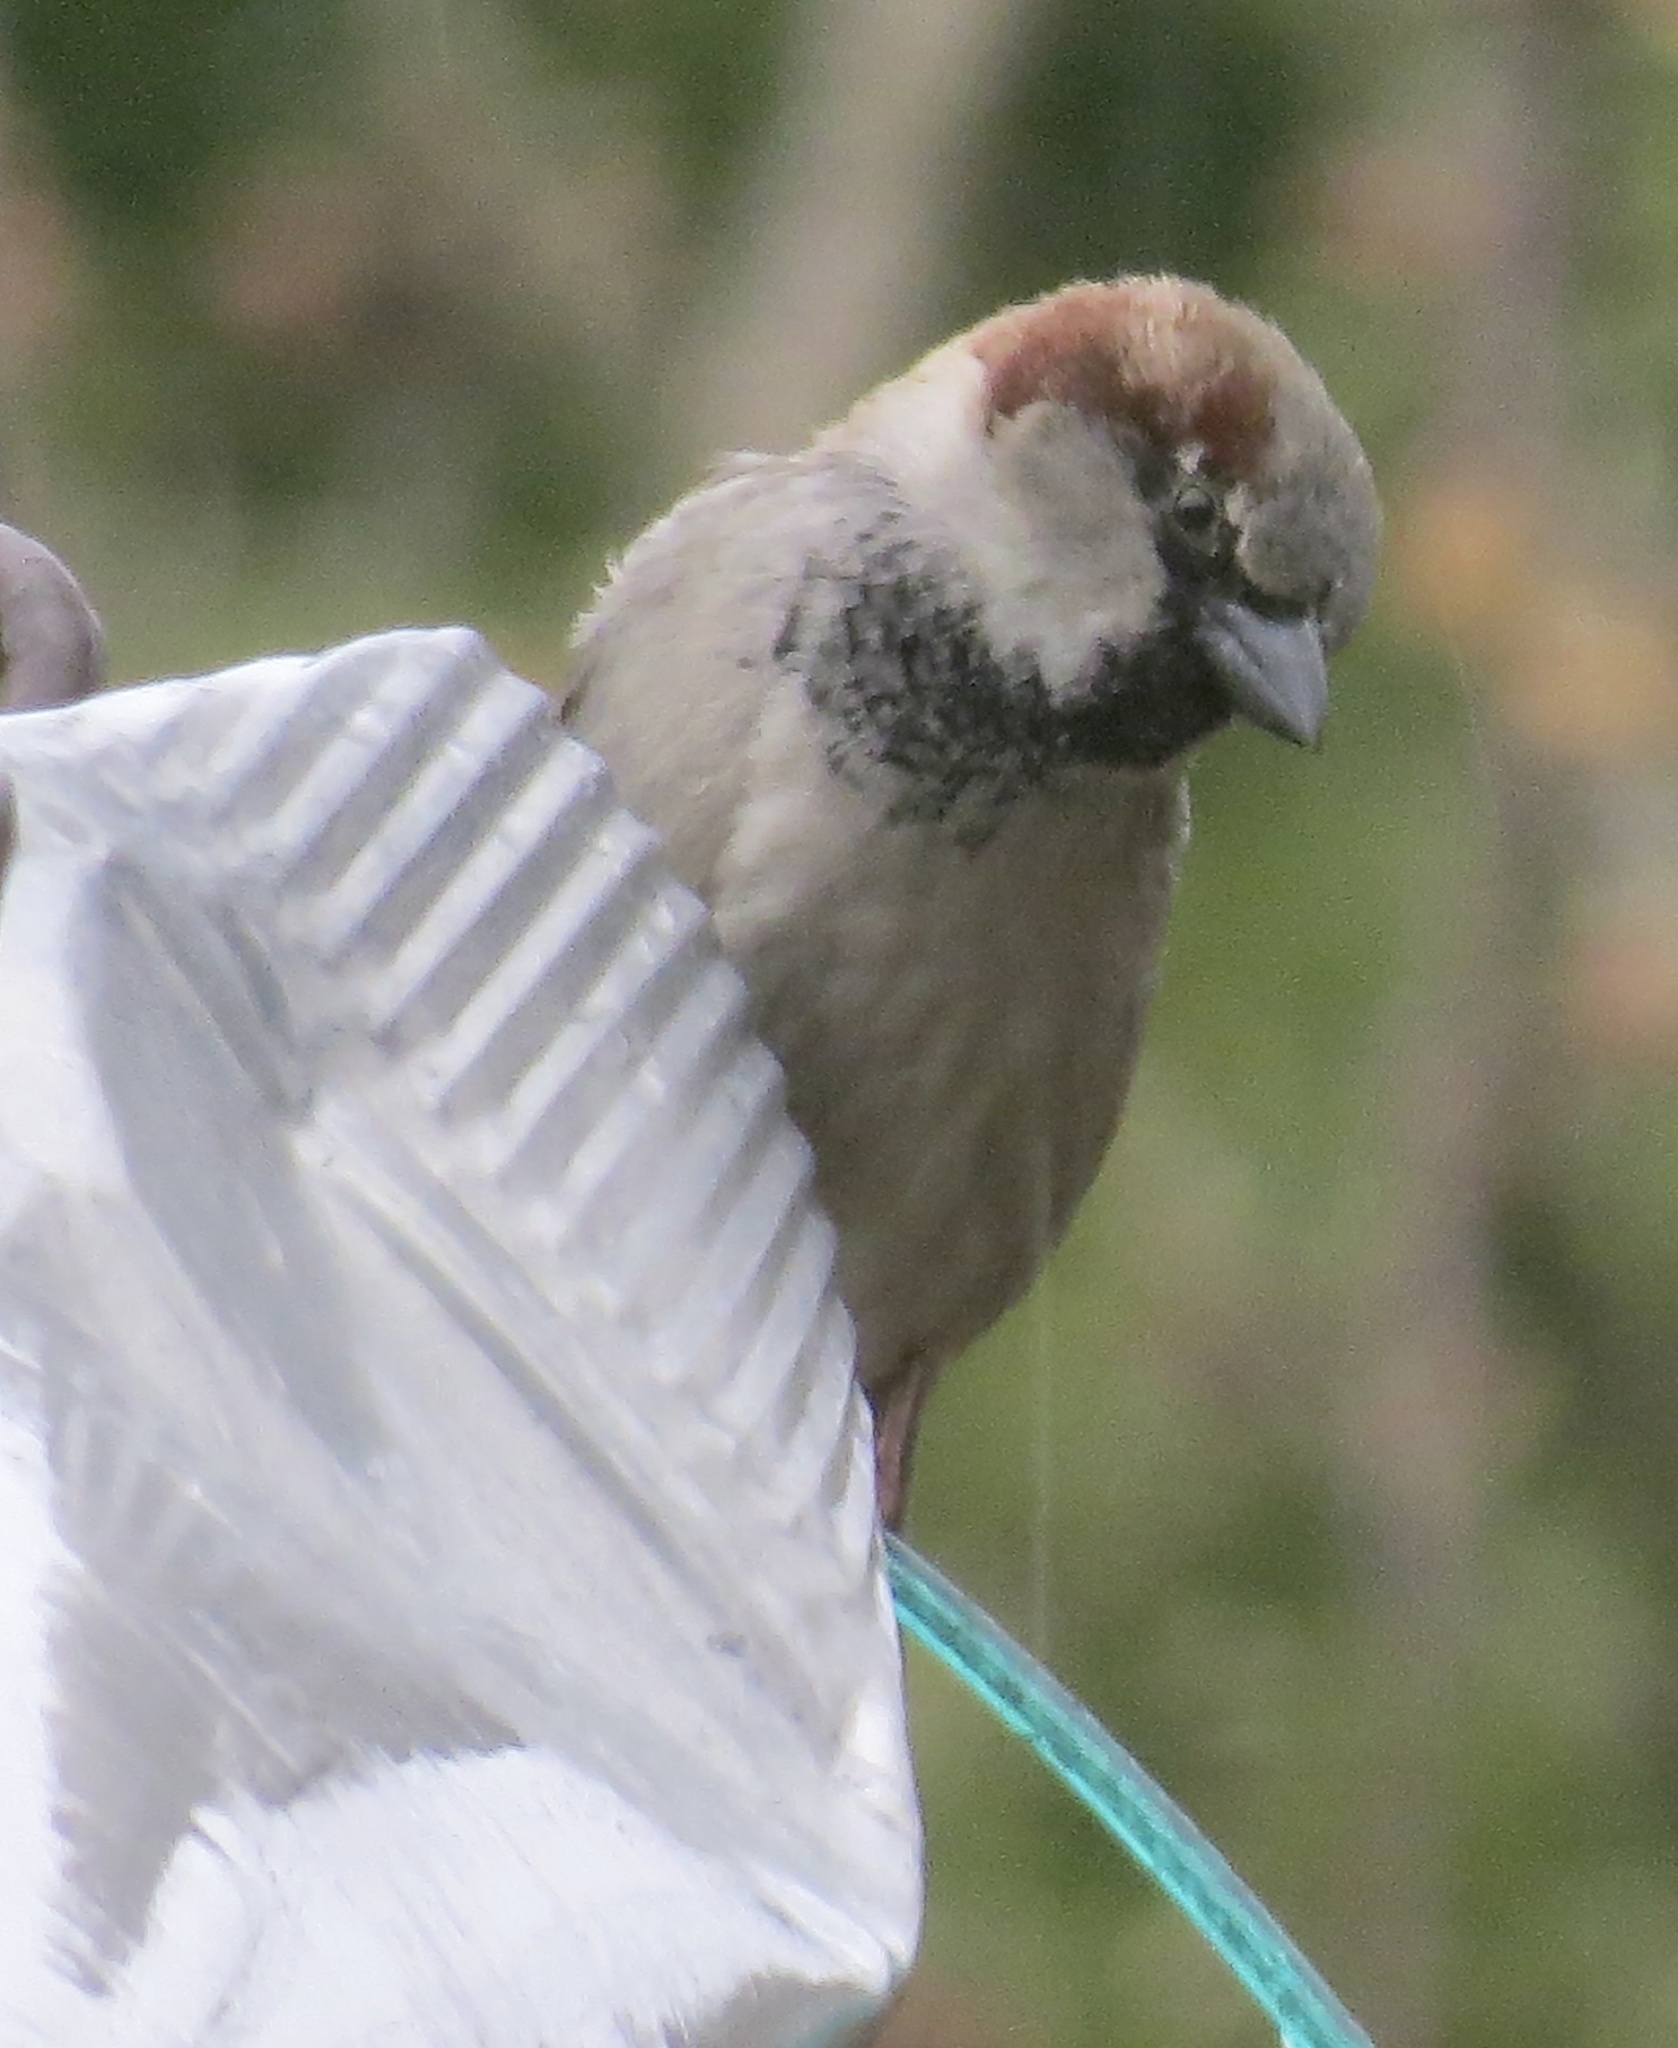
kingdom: Animalia
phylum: Chordata
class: Aves
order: Passeriformes
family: Passeridae
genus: Passer
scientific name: Passer domesticus
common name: House sparrow
